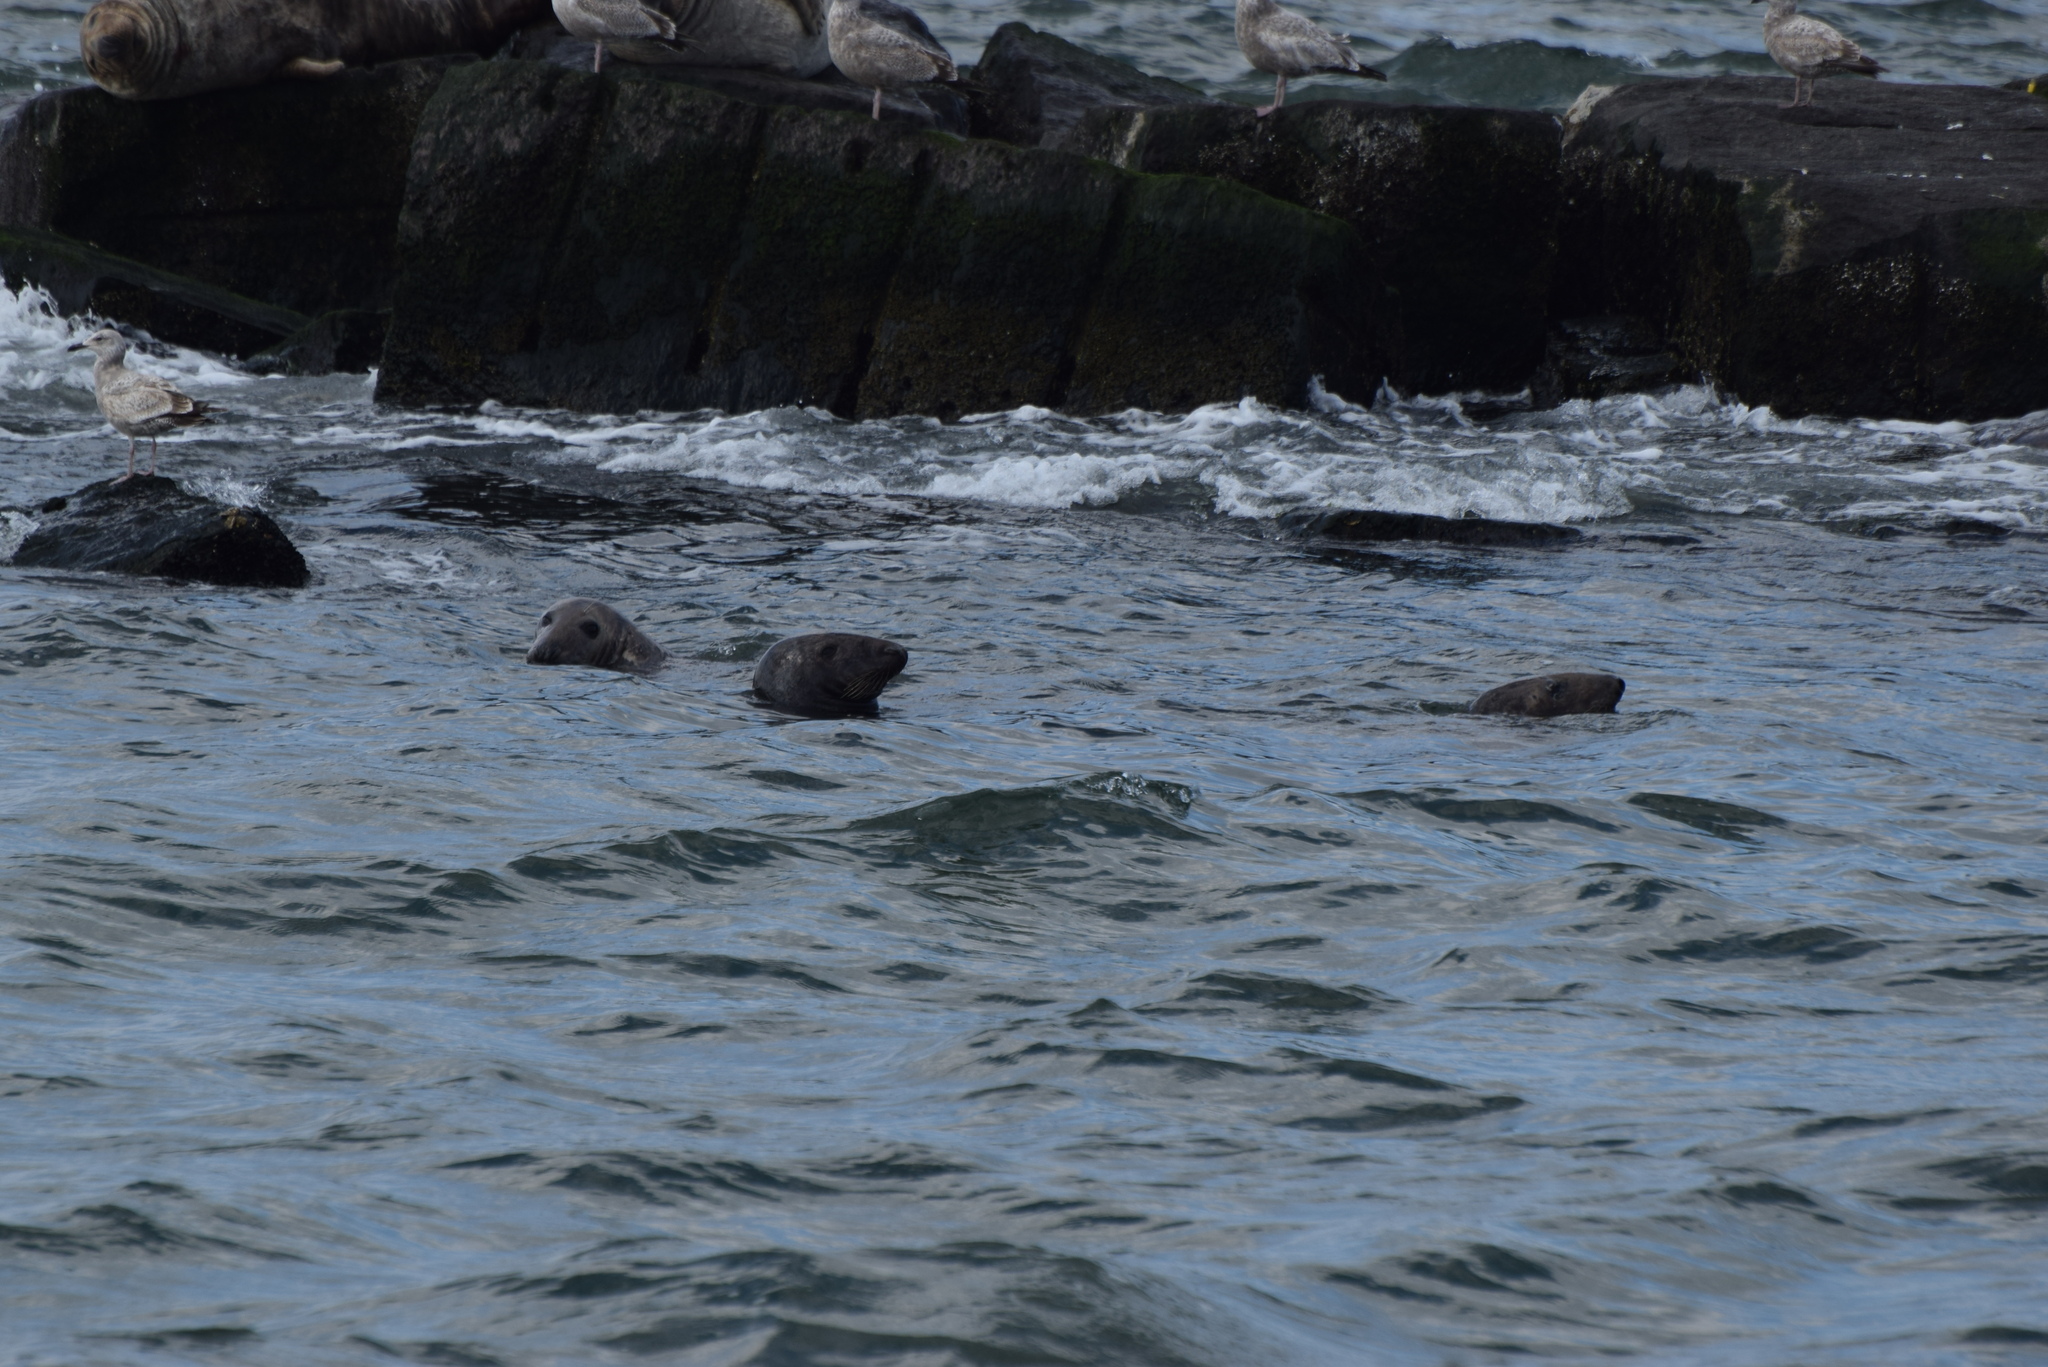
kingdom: Animalia
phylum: Chordata
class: Mammalia
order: Carnivora
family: Phocidae
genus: Halichoerus
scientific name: Halichoerus grypus
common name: Grey seal
